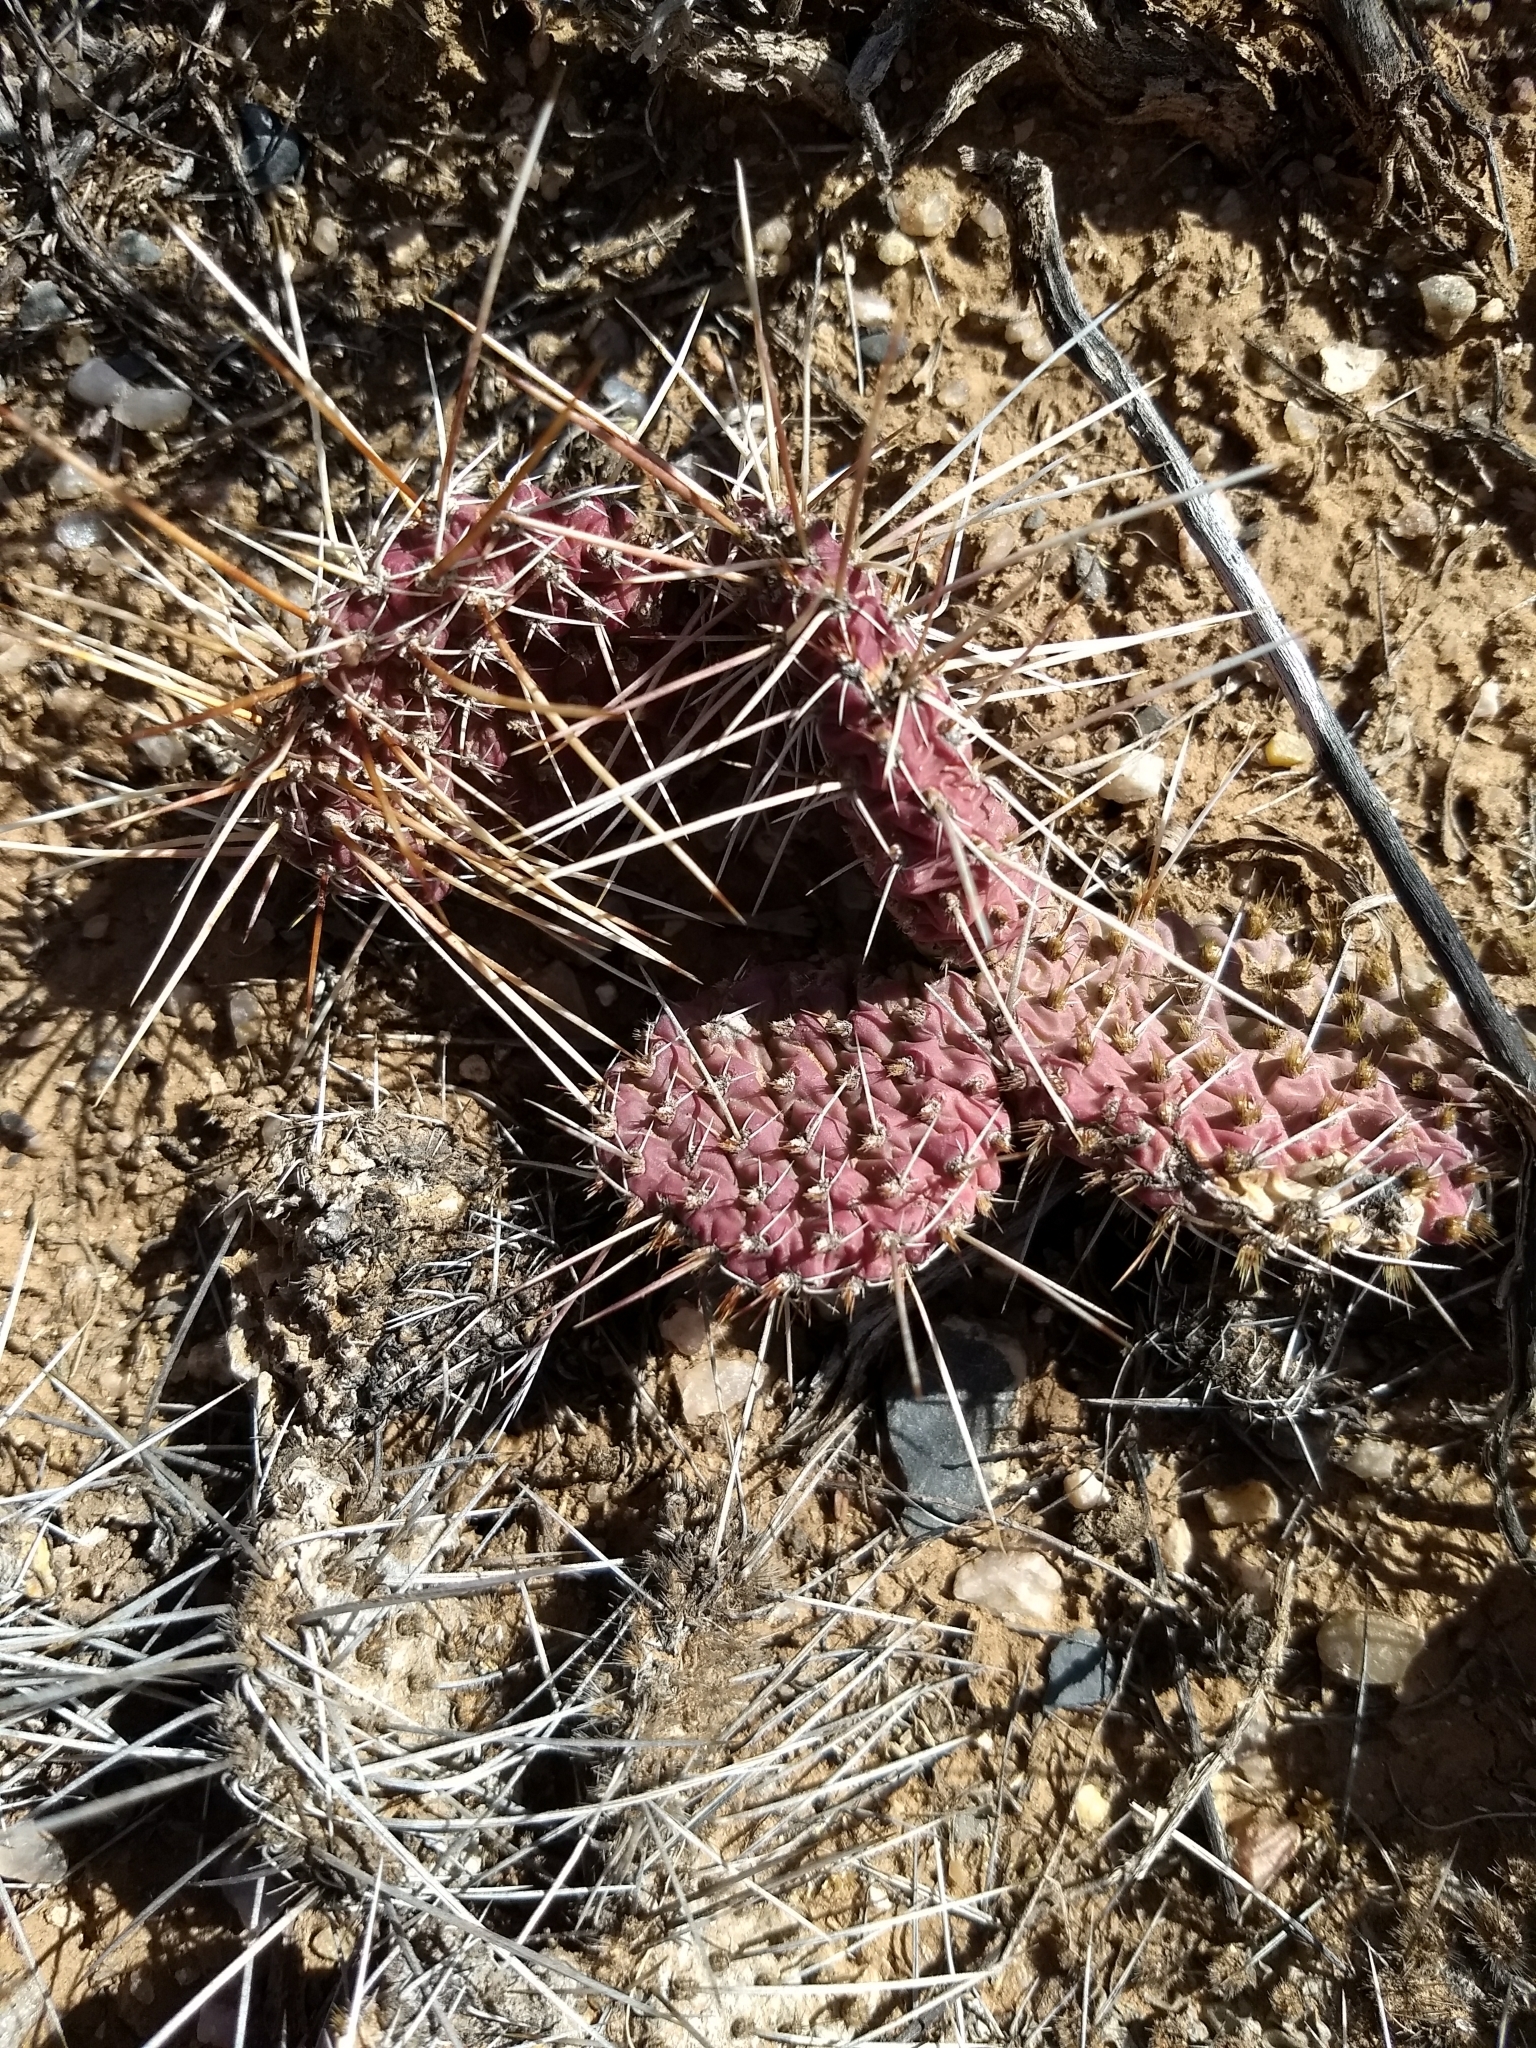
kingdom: Plantae
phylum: Tracheophyta
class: Magnoliopsida
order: Caryophyllales
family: Cactaceae
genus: Opuntia
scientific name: Opuntia polyacantha
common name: Plains prickly-pear
